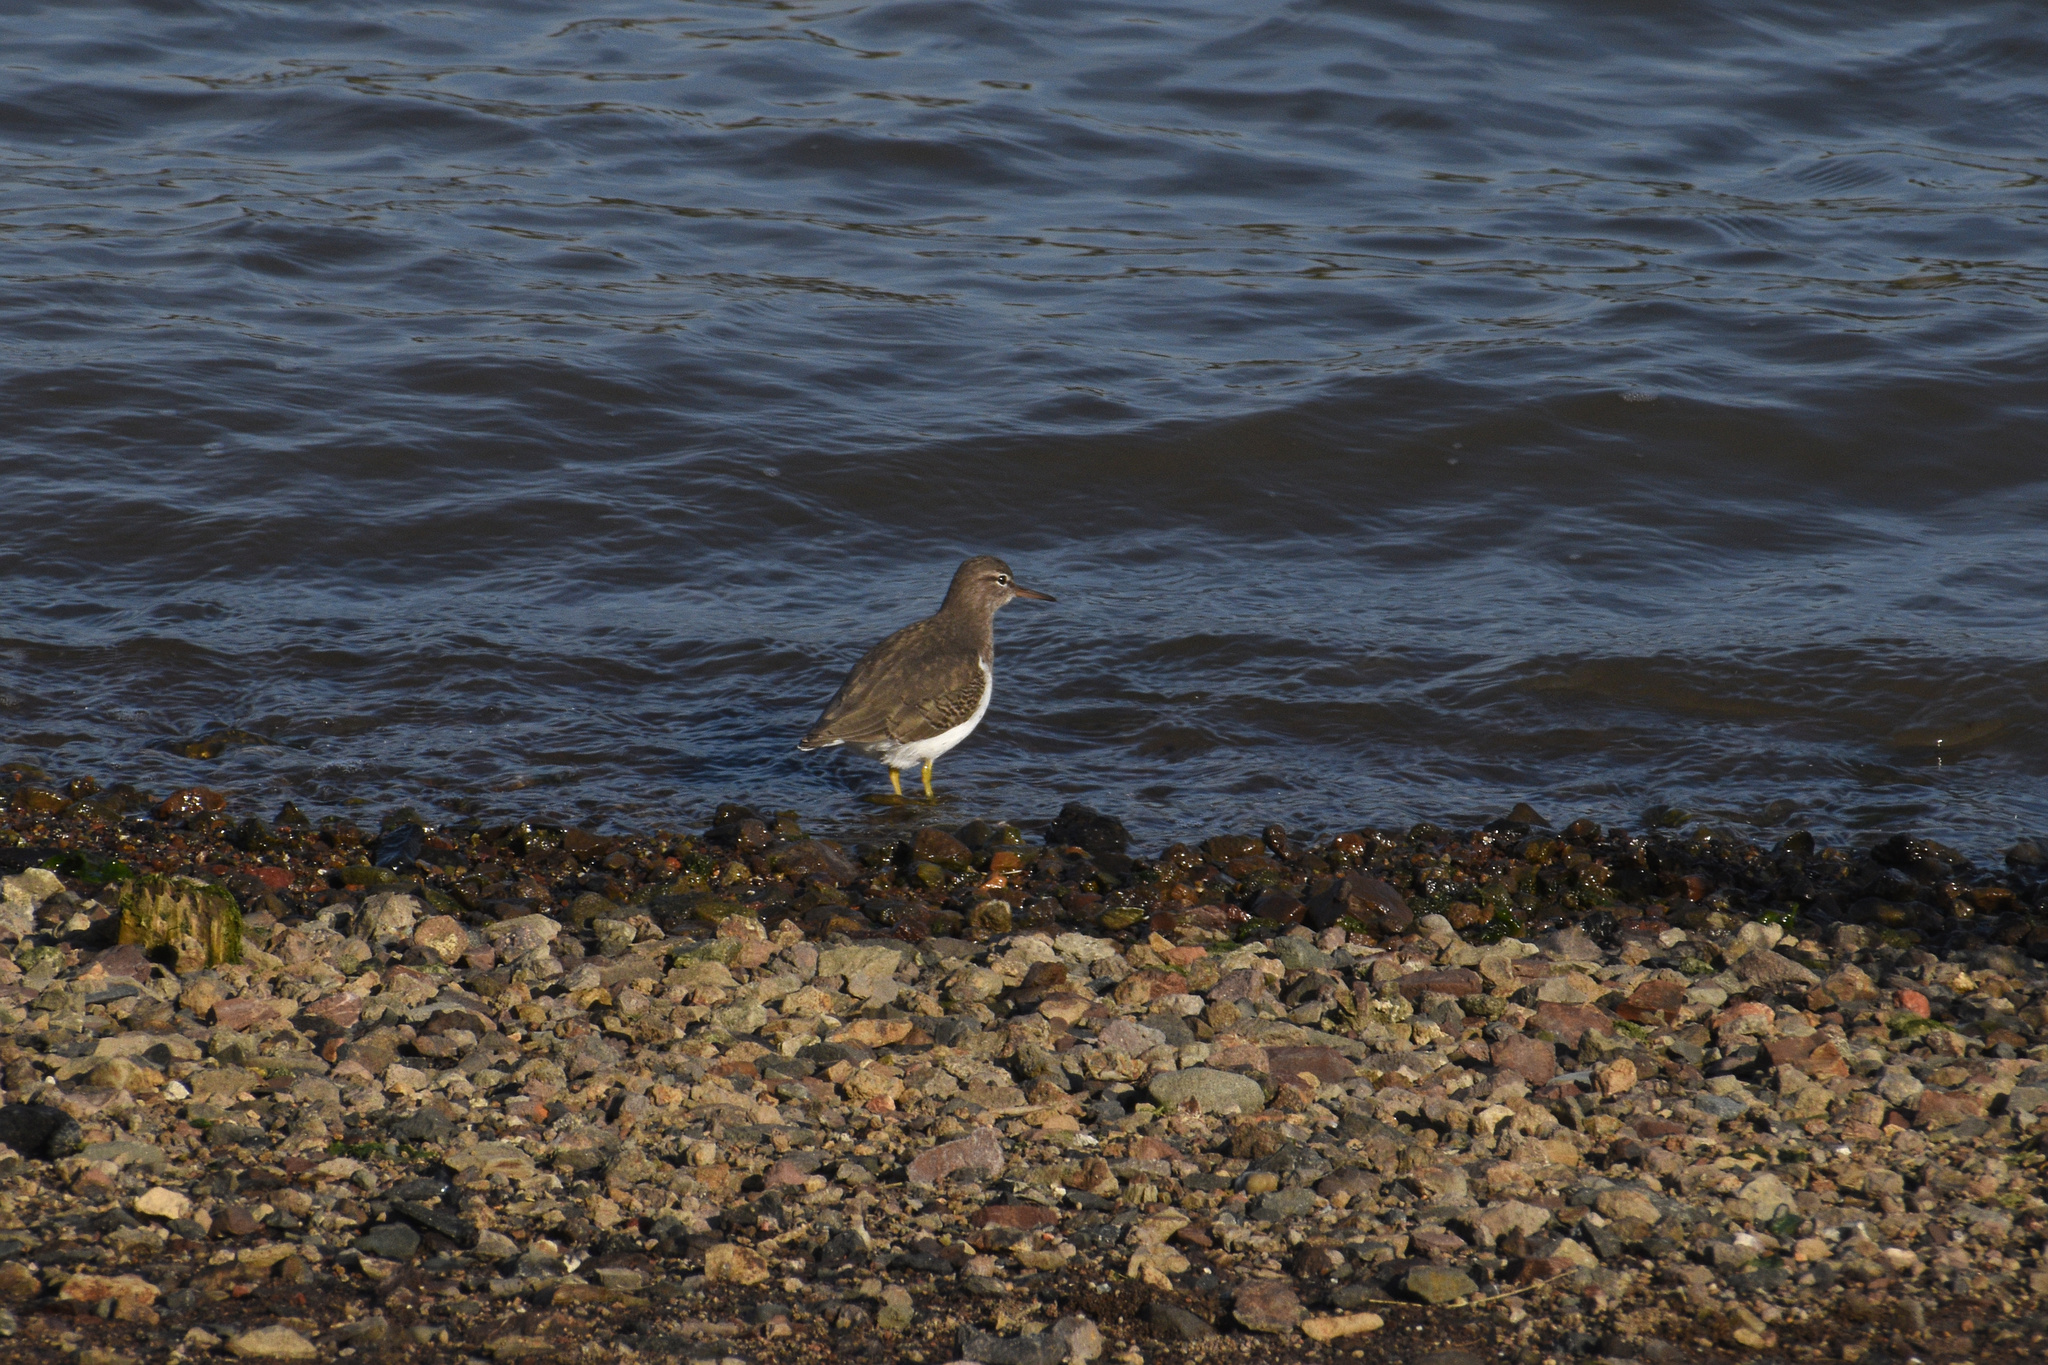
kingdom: Animalia
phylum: Chordata
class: Aves
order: Charadriiformes
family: Scolopacidae
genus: Actitis
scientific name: Actitis macularius
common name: Spotted sandpiper
